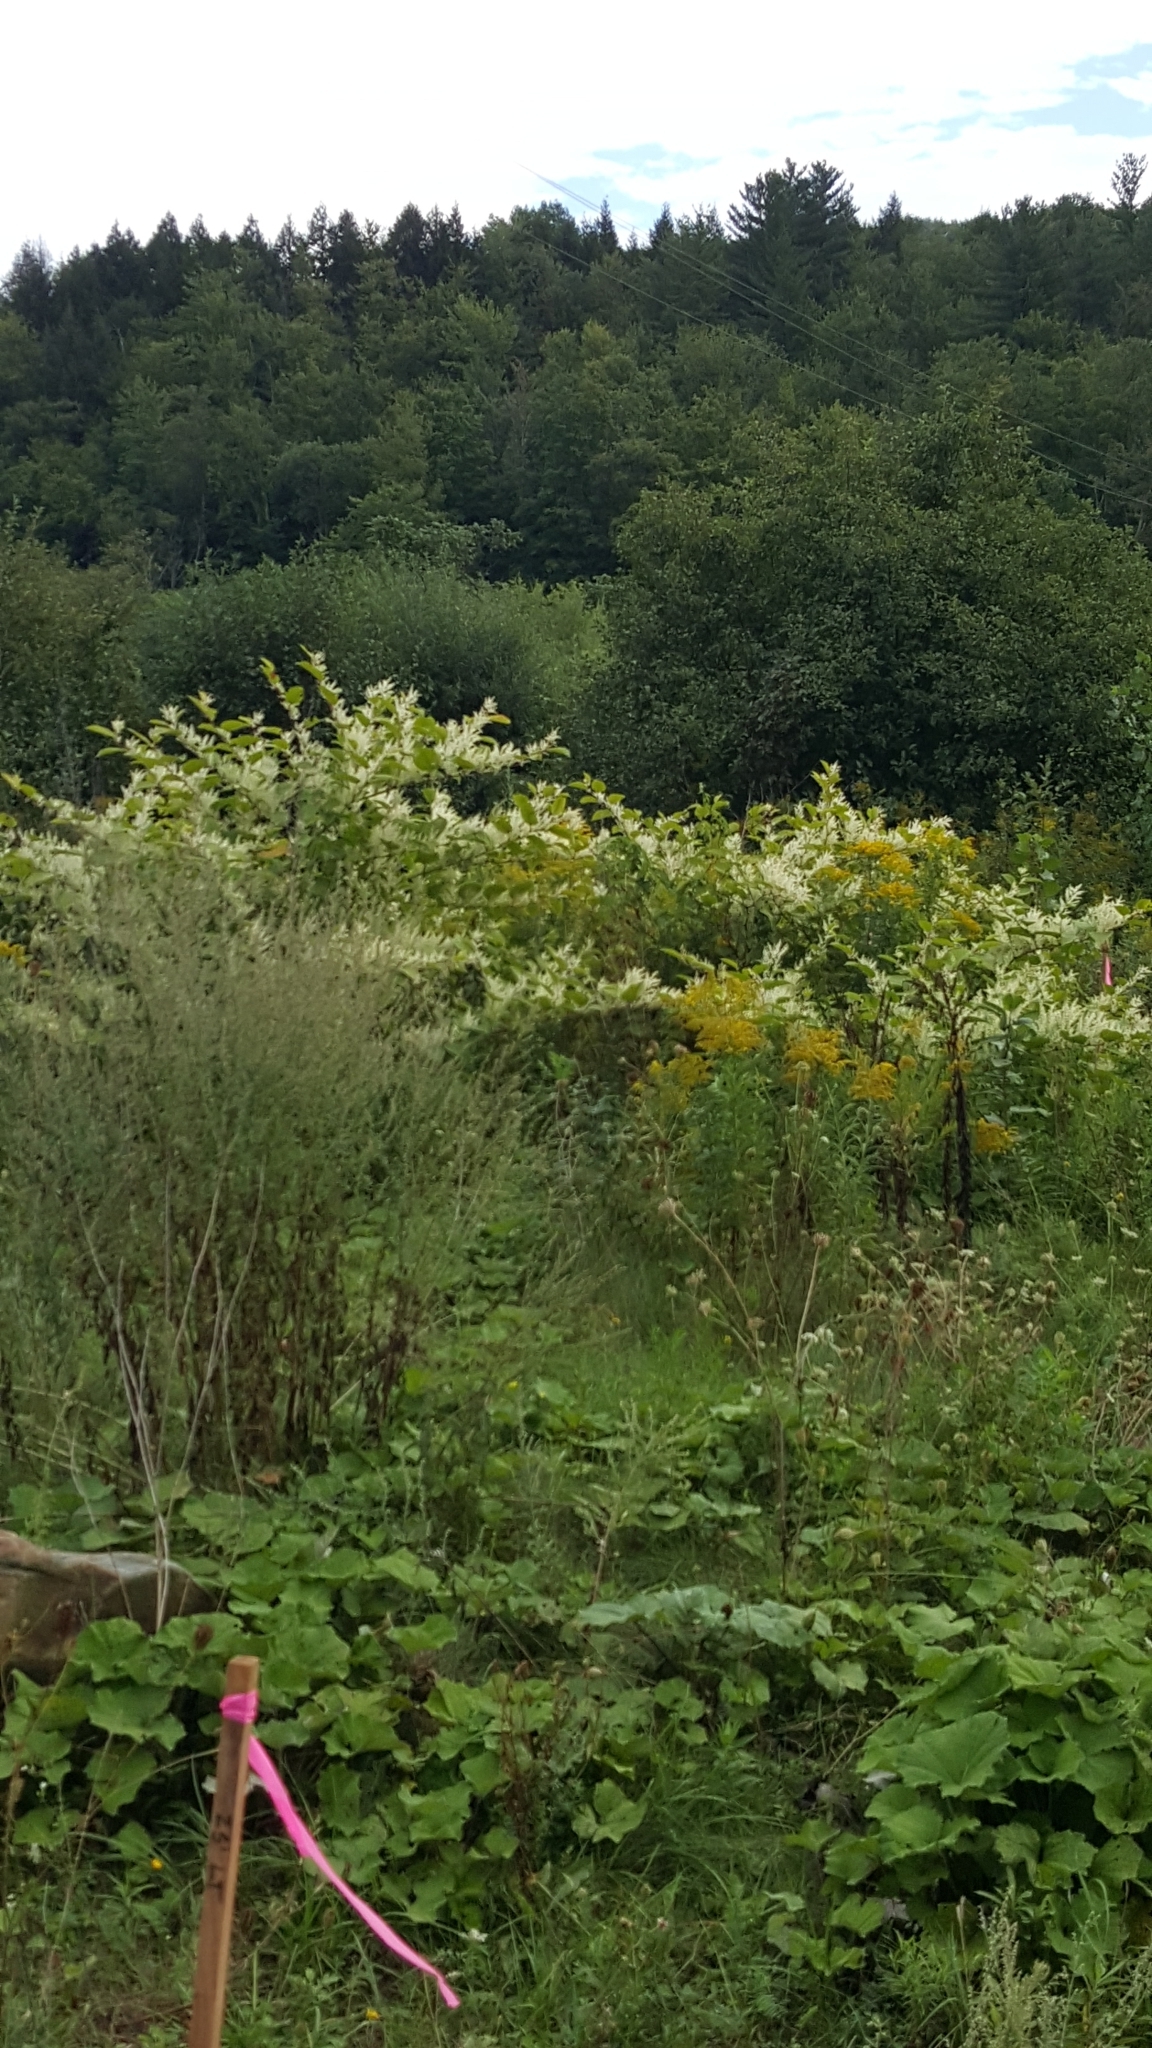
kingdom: Plantae
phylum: Tracheophyta
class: Magnoliopsida
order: Caryophyllales
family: Polygonaceae
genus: Reynoutria
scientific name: Reynoutria japonica
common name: Japanese knotweed
